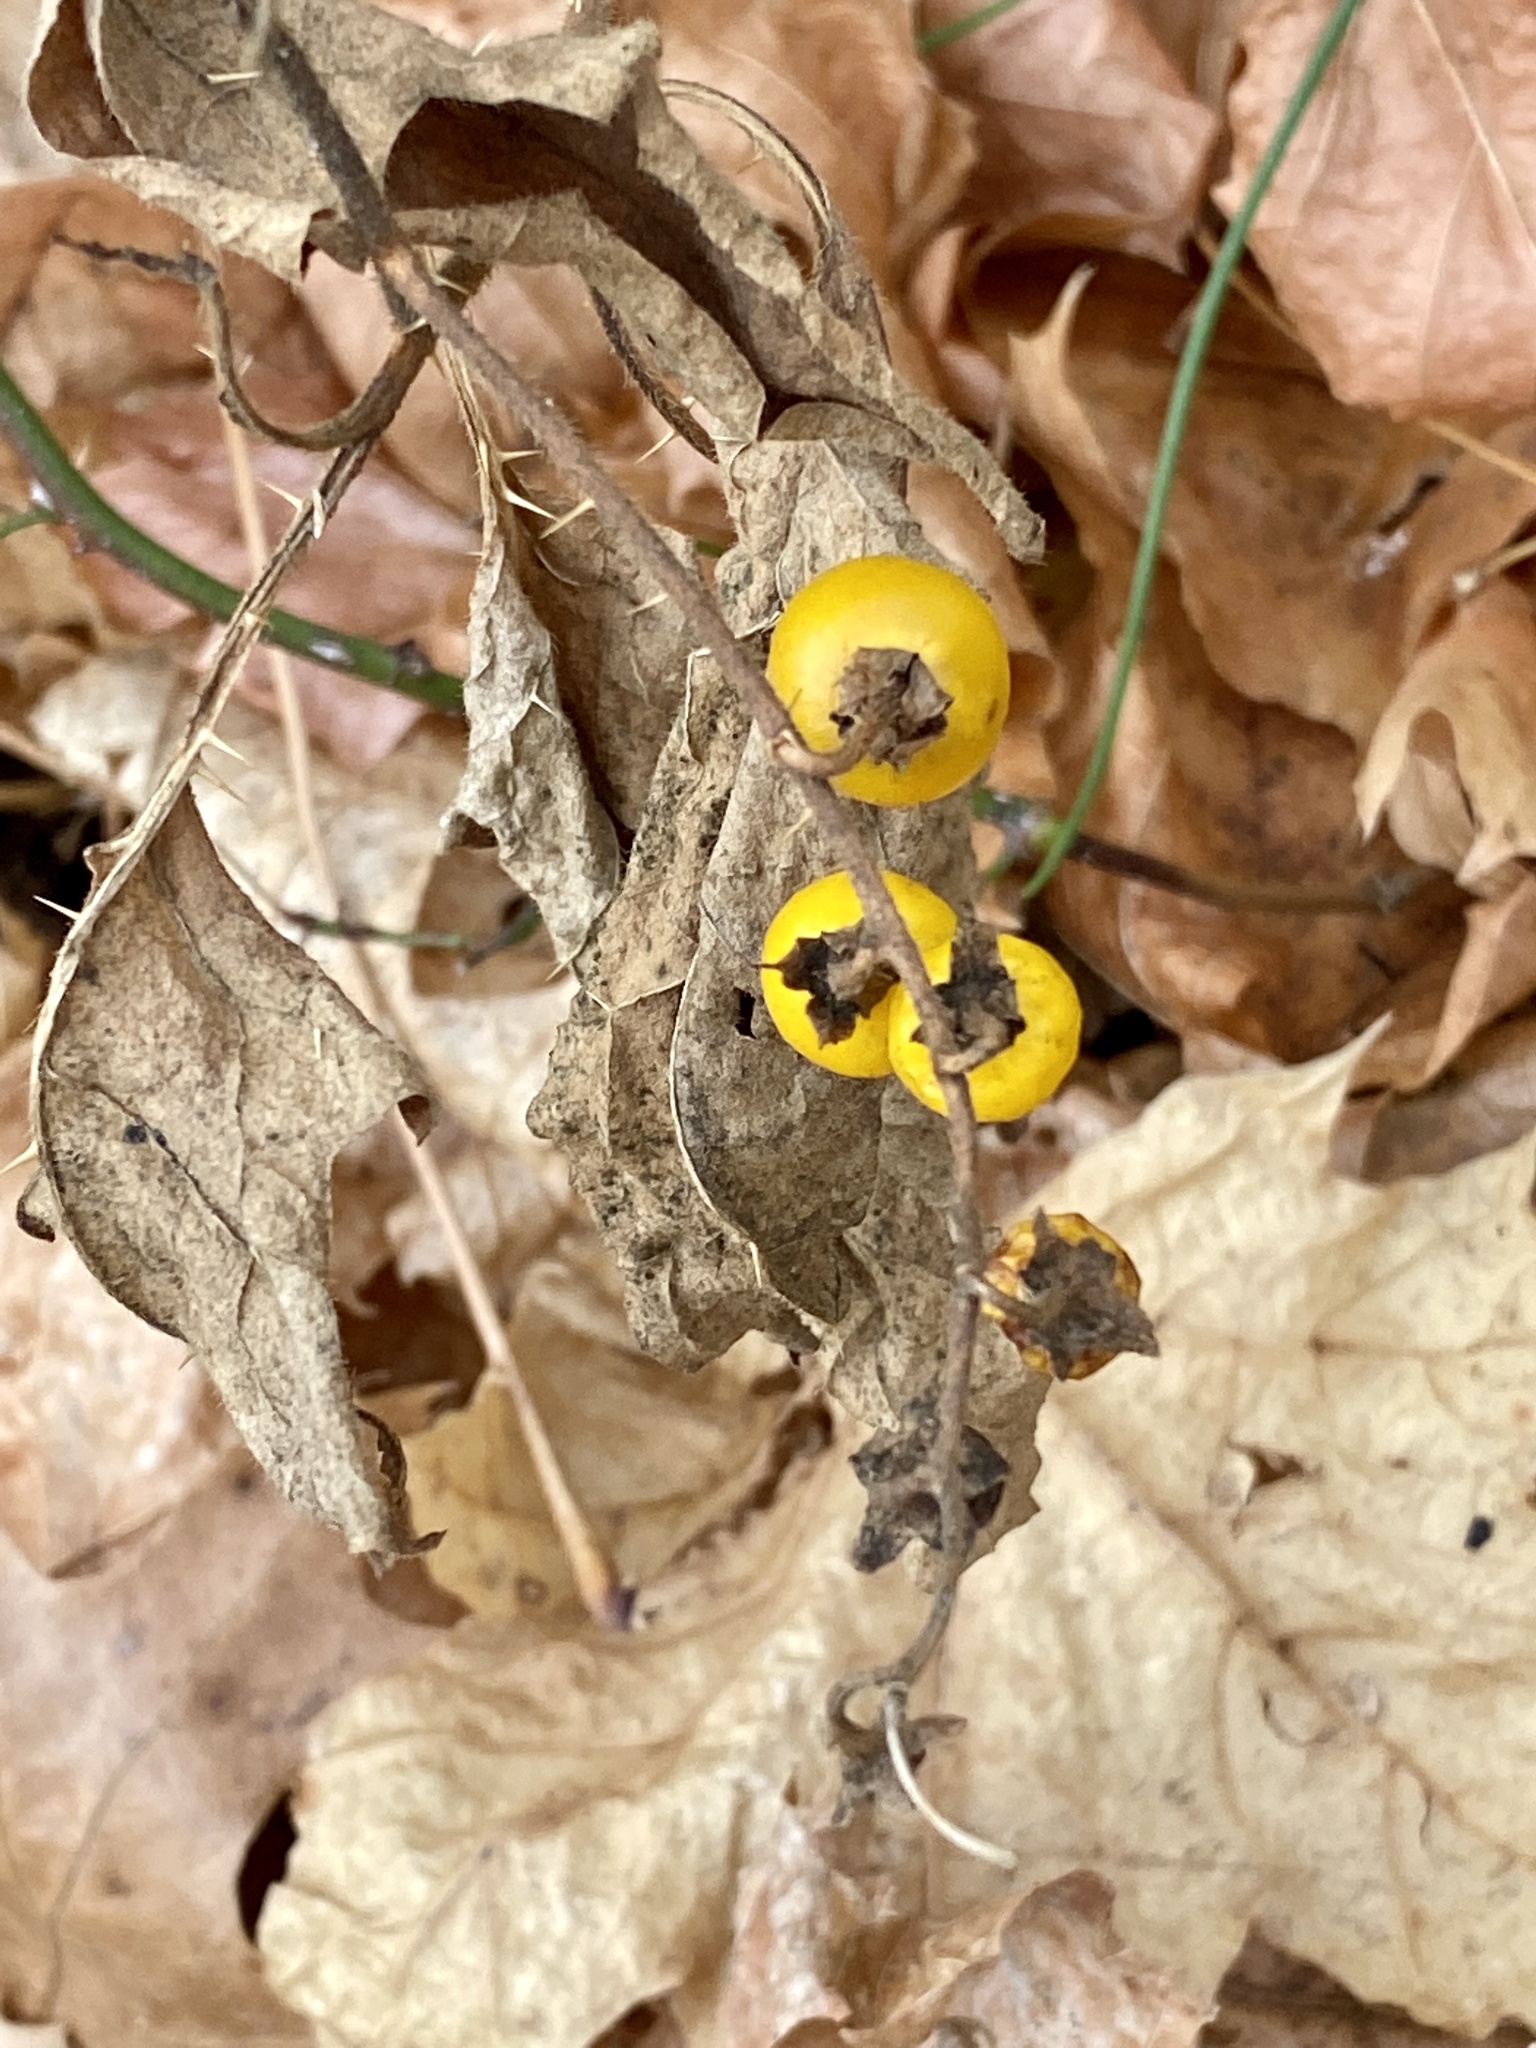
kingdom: Plantae
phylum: Tracheophyta
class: Magnoliopsida
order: Solanales
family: Solanaceae
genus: Solanum
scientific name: Solanum carolinense
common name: Horse-nettle
